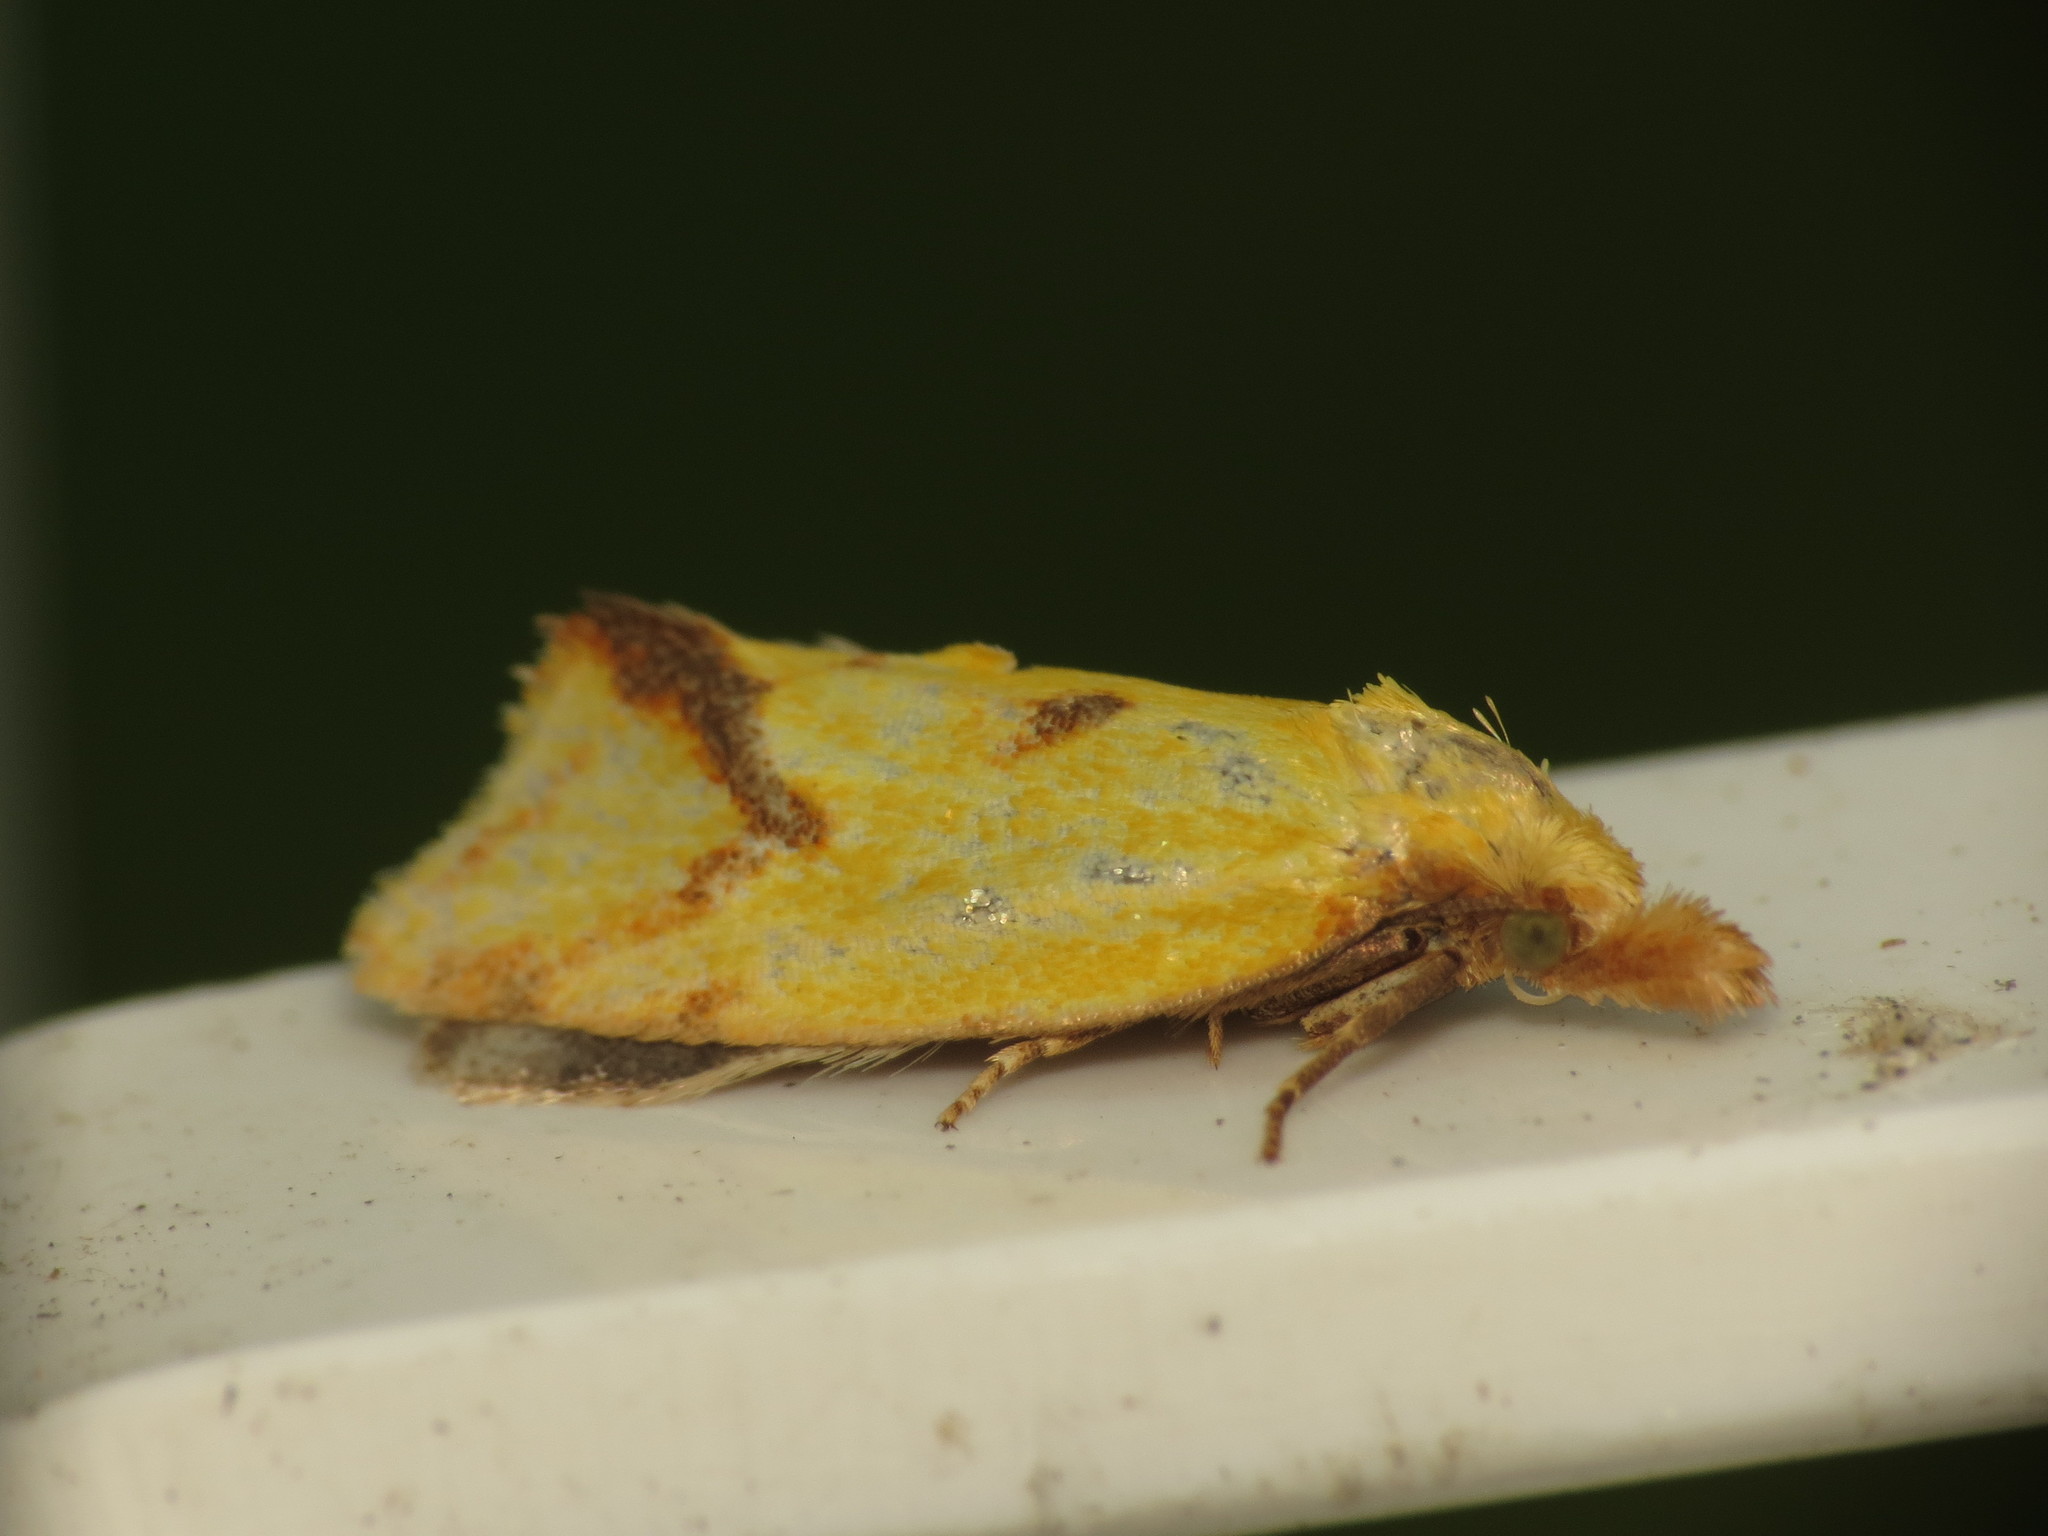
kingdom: Animalia
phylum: Arthropoda
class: Insecta
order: Lepidoptera
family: Tortricidae
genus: Agapeta
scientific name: Agapeta hamana
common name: Common yellow conch
